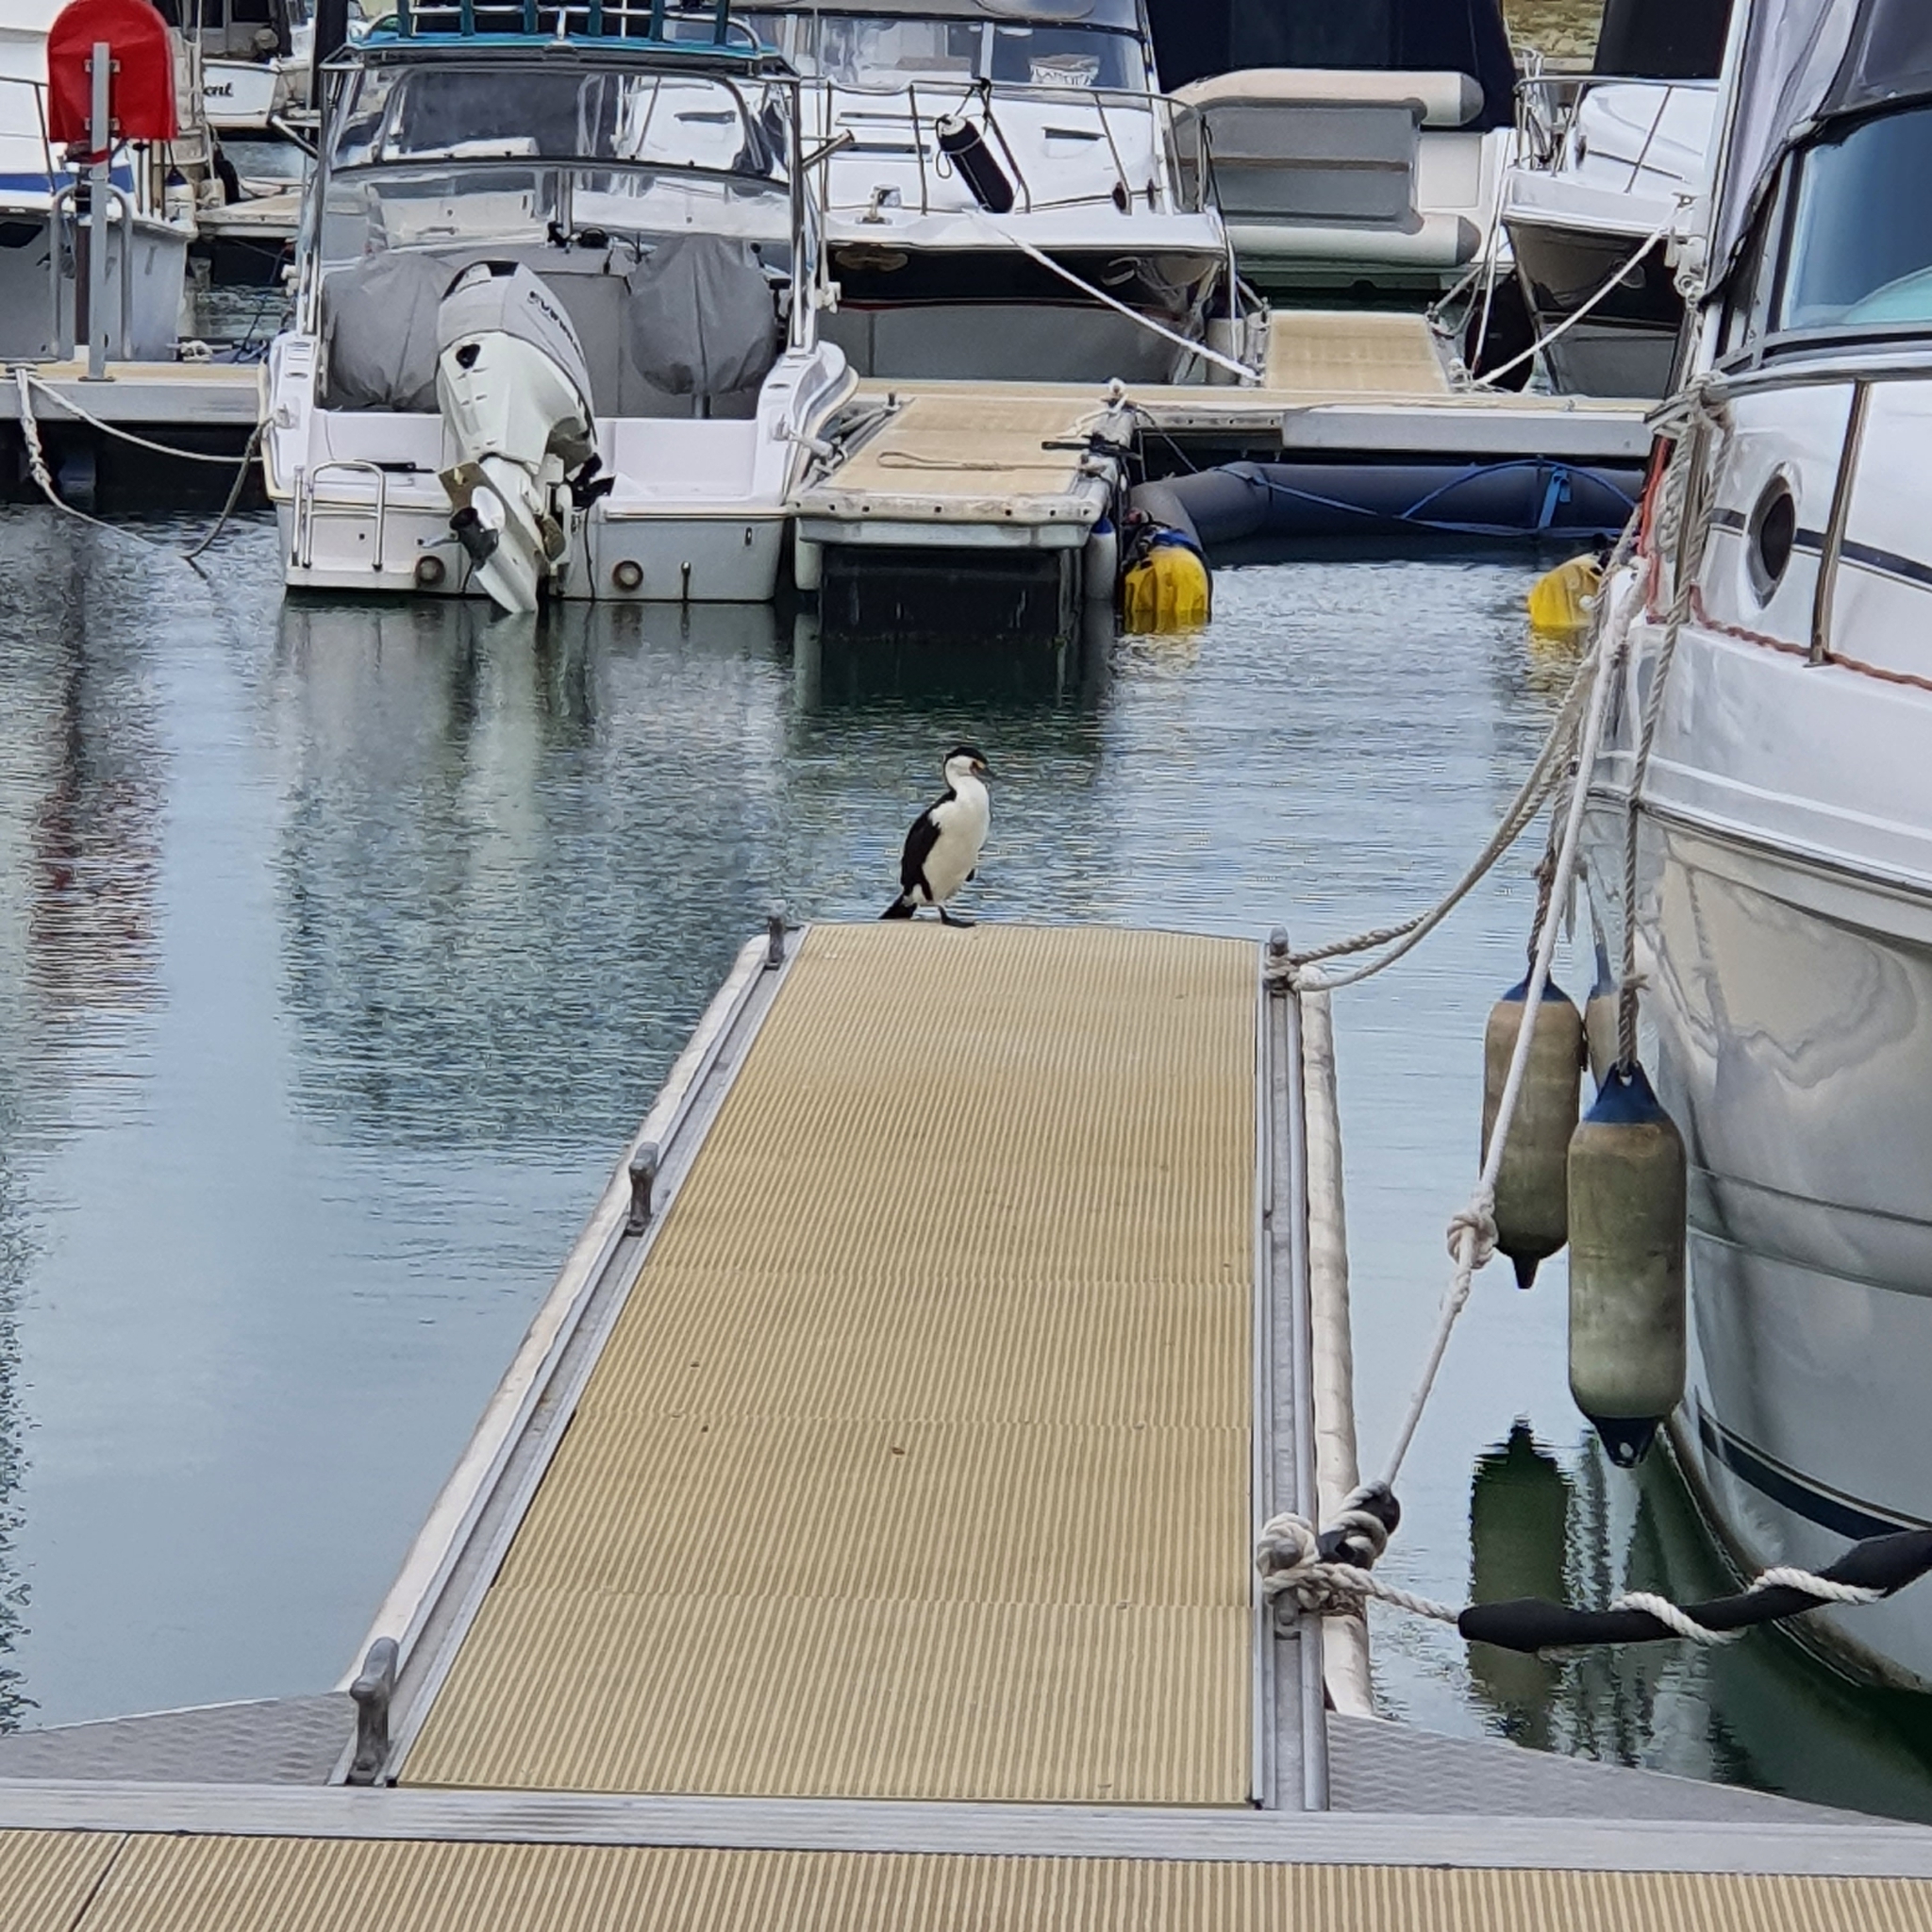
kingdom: Animalia
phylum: Chordata
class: Aves
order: Suliformes
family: Phalacrocoracidae
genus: Phalacrocorax
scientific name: Phalacrocorax varius
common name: Pied cormorant
